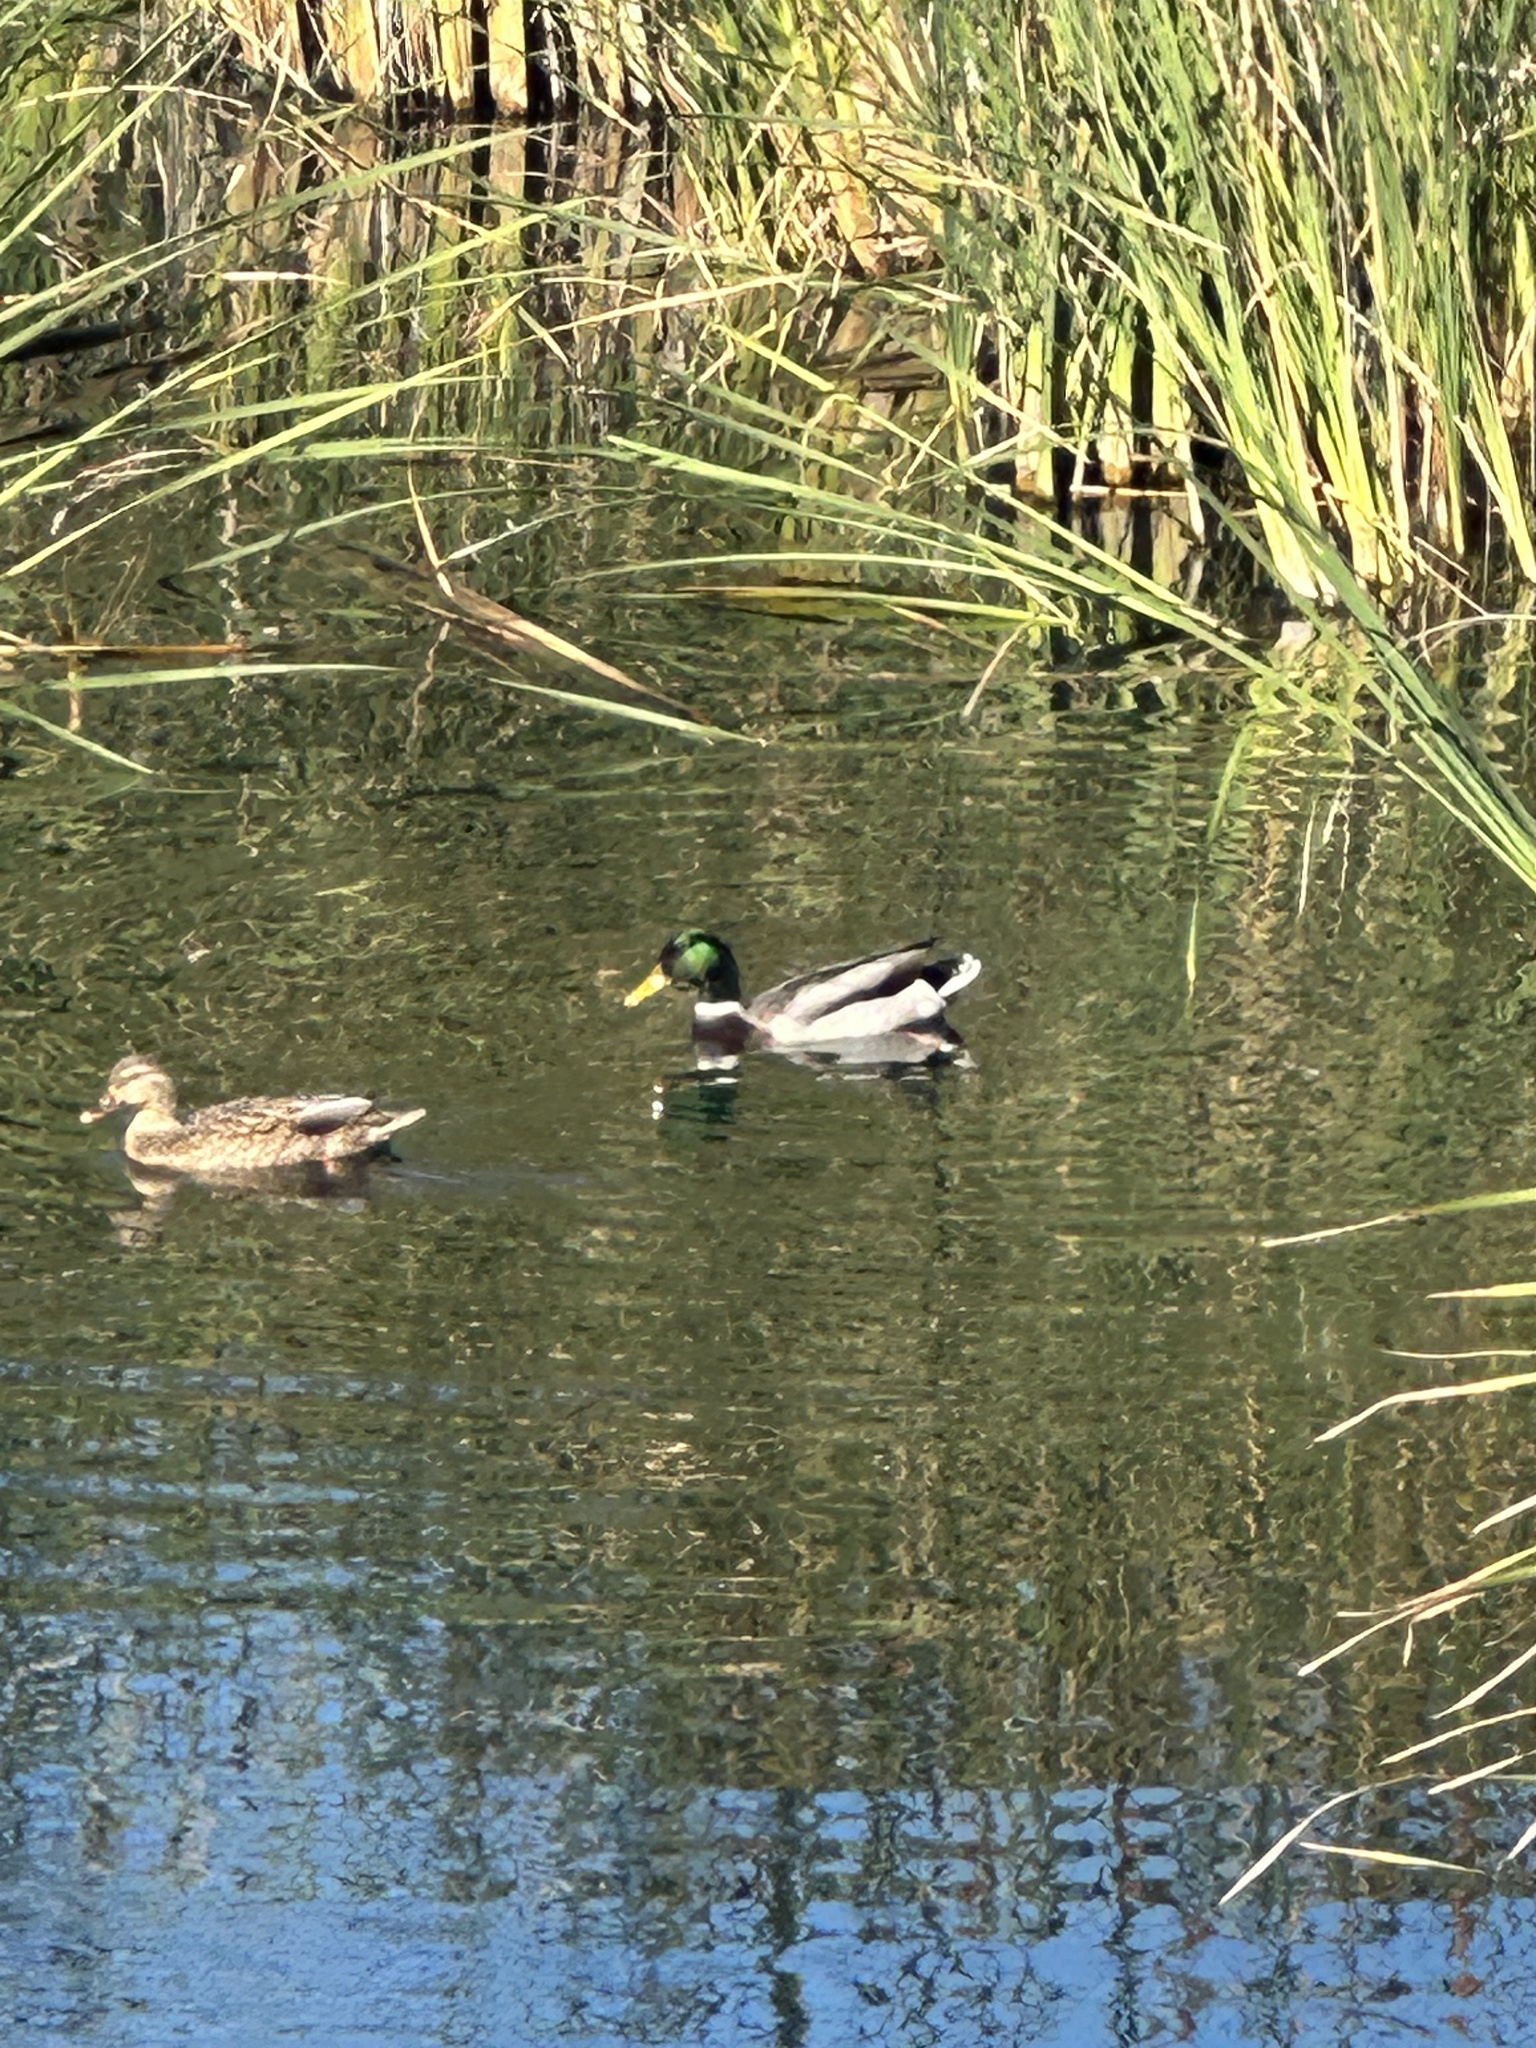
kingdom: Animalia
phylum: Chordata
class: Aves
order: Anseriformes
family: Anatidae
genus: Anas
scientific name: Anas platyrhynchos
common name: Mallard
